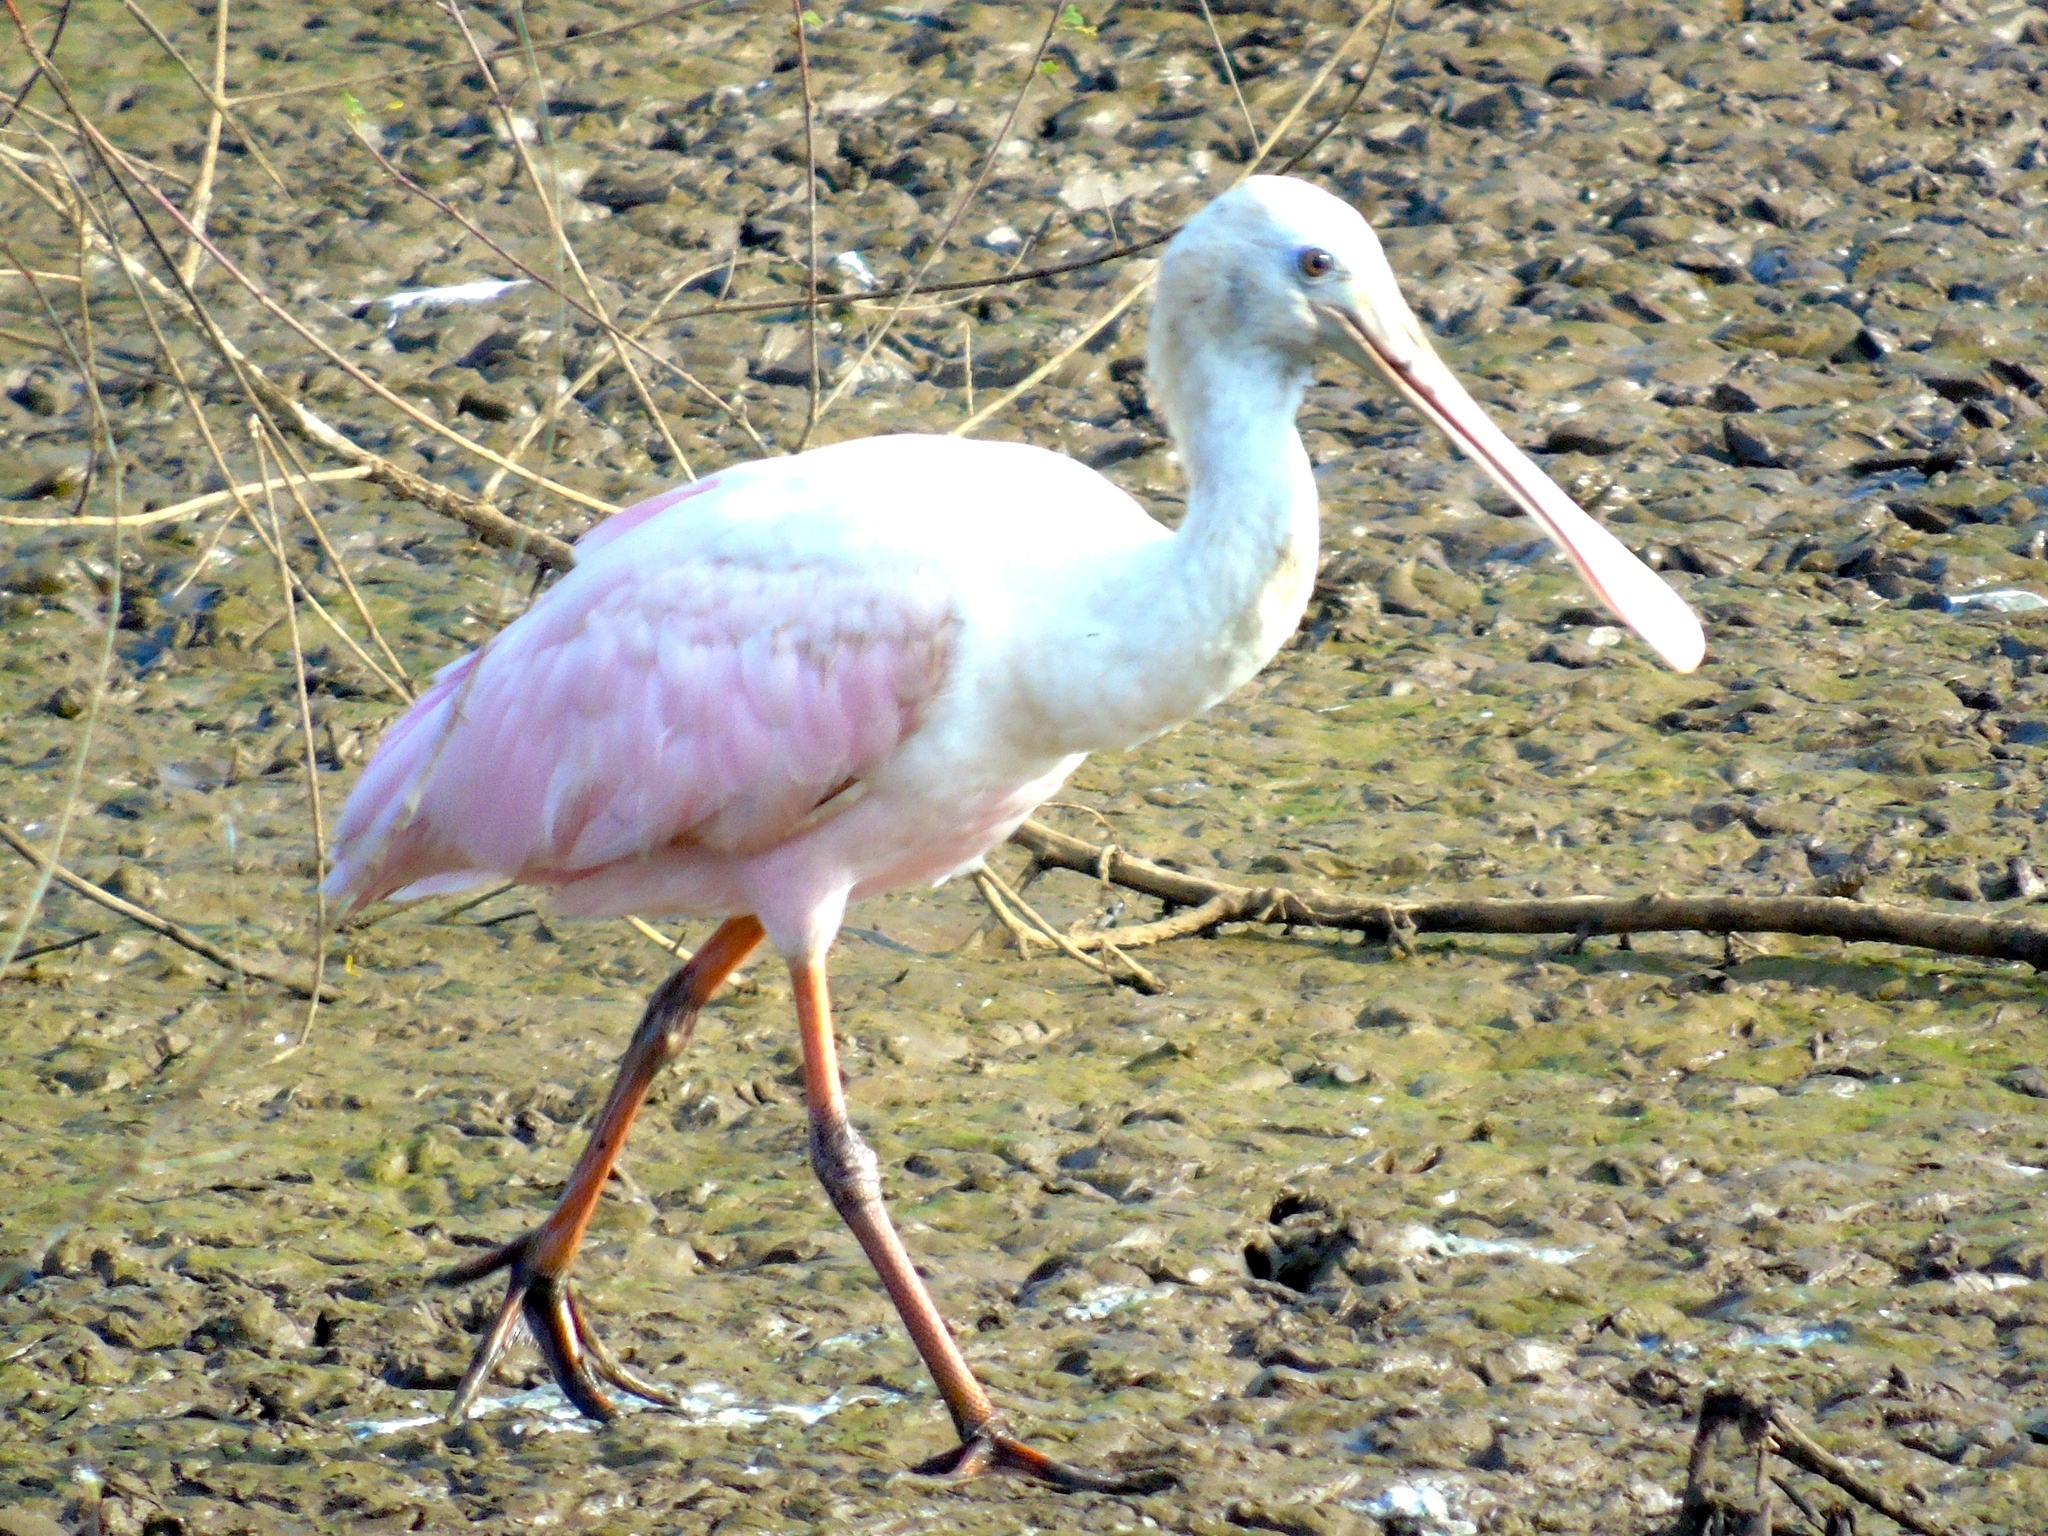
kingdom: Animalia
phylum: Chordata
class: Aves
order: Pelecaniformes
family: Threskiornithidae
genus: Platalea
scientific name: Platalea ajaja
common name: Roseate spoonbill
